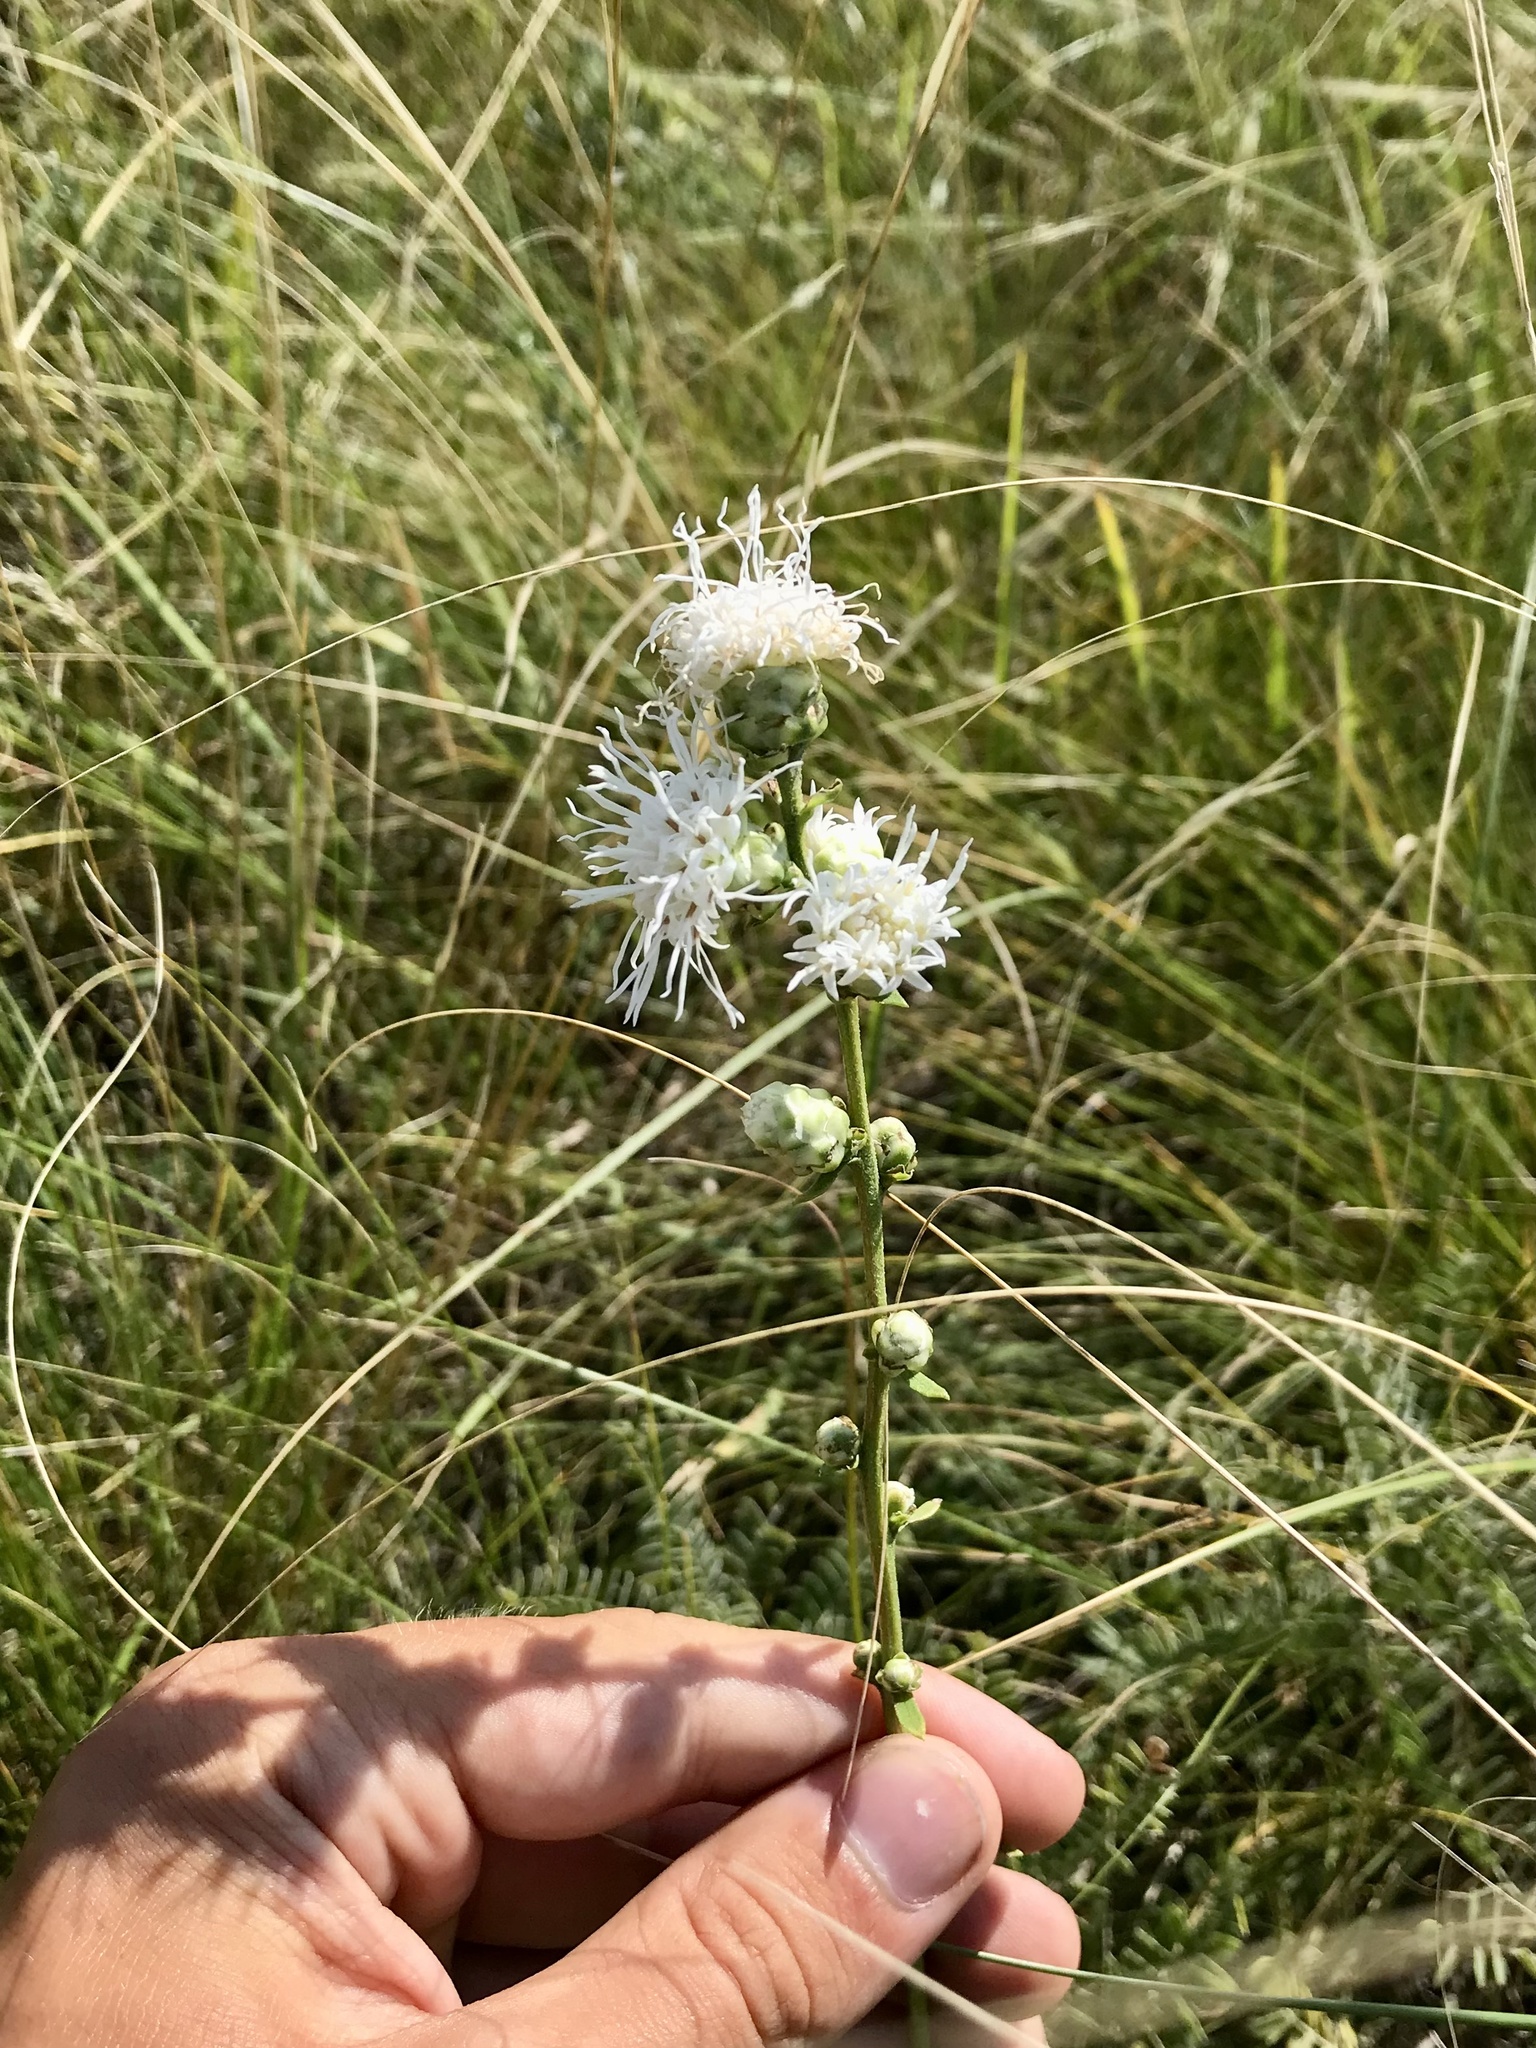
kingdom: Plantae
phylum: Tracheophyta
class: Magnoliopsida
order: Asterales
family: Asteraceae
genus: Liatris
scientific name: Liatris aspera
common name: Lacerate blazing-star
